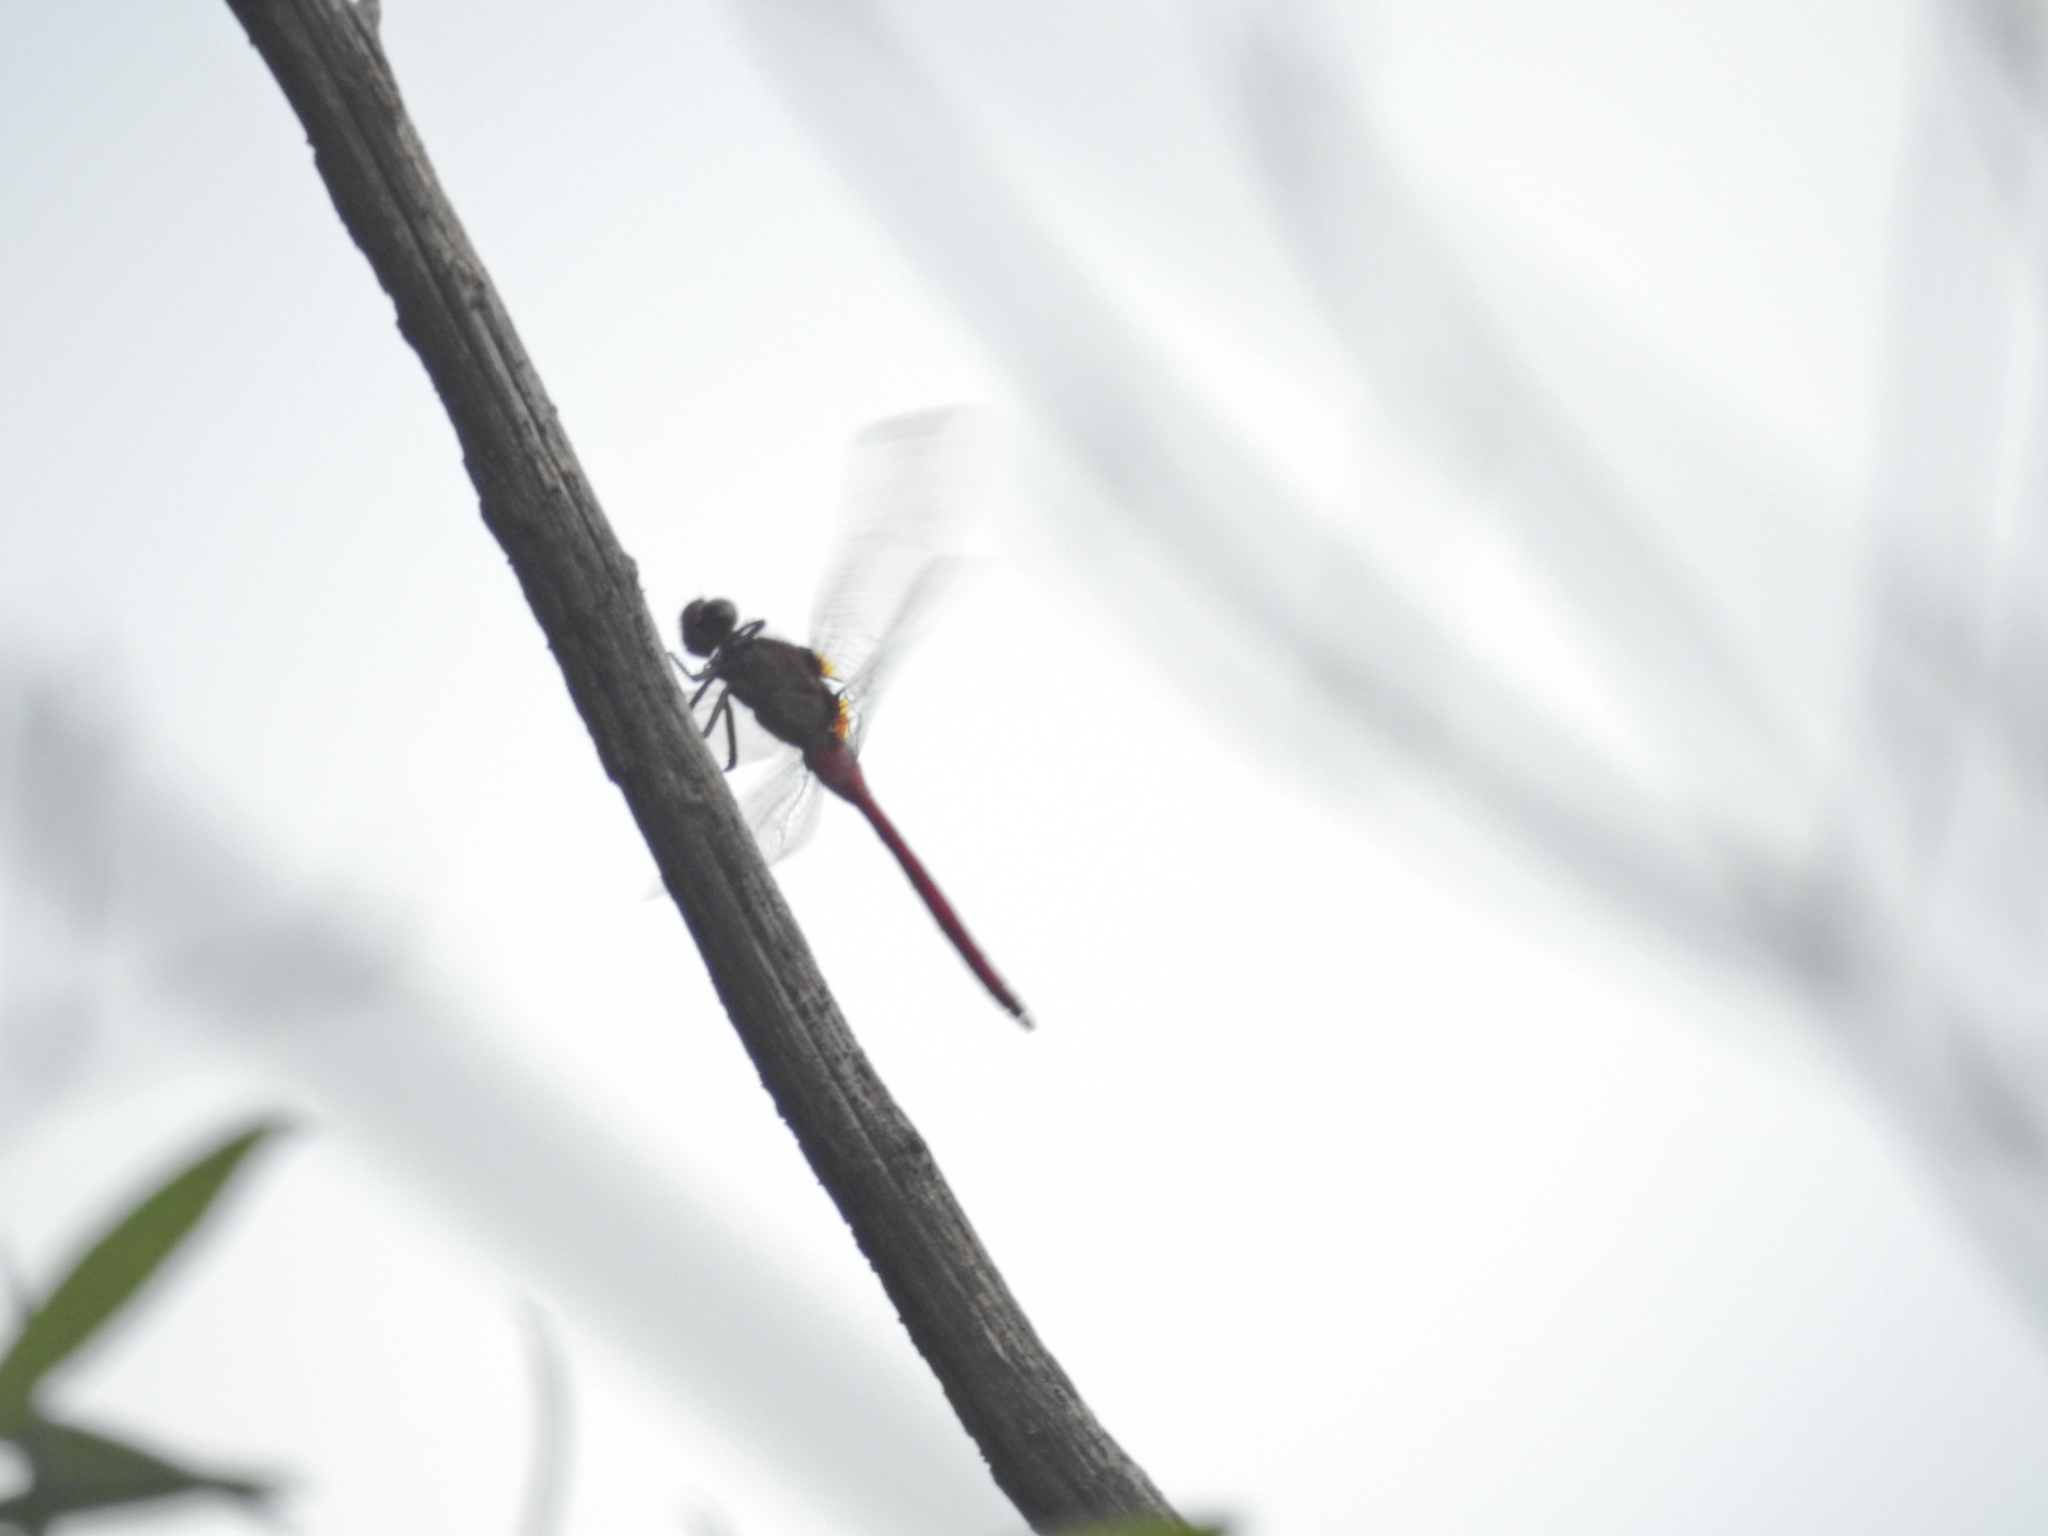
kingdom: Animalia
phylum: Arthropoda
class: Insecta
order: Odonata
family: Libellulidae
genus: Orthetrum
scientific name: Orthetrum villosovittatum
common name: Firery skimmer
